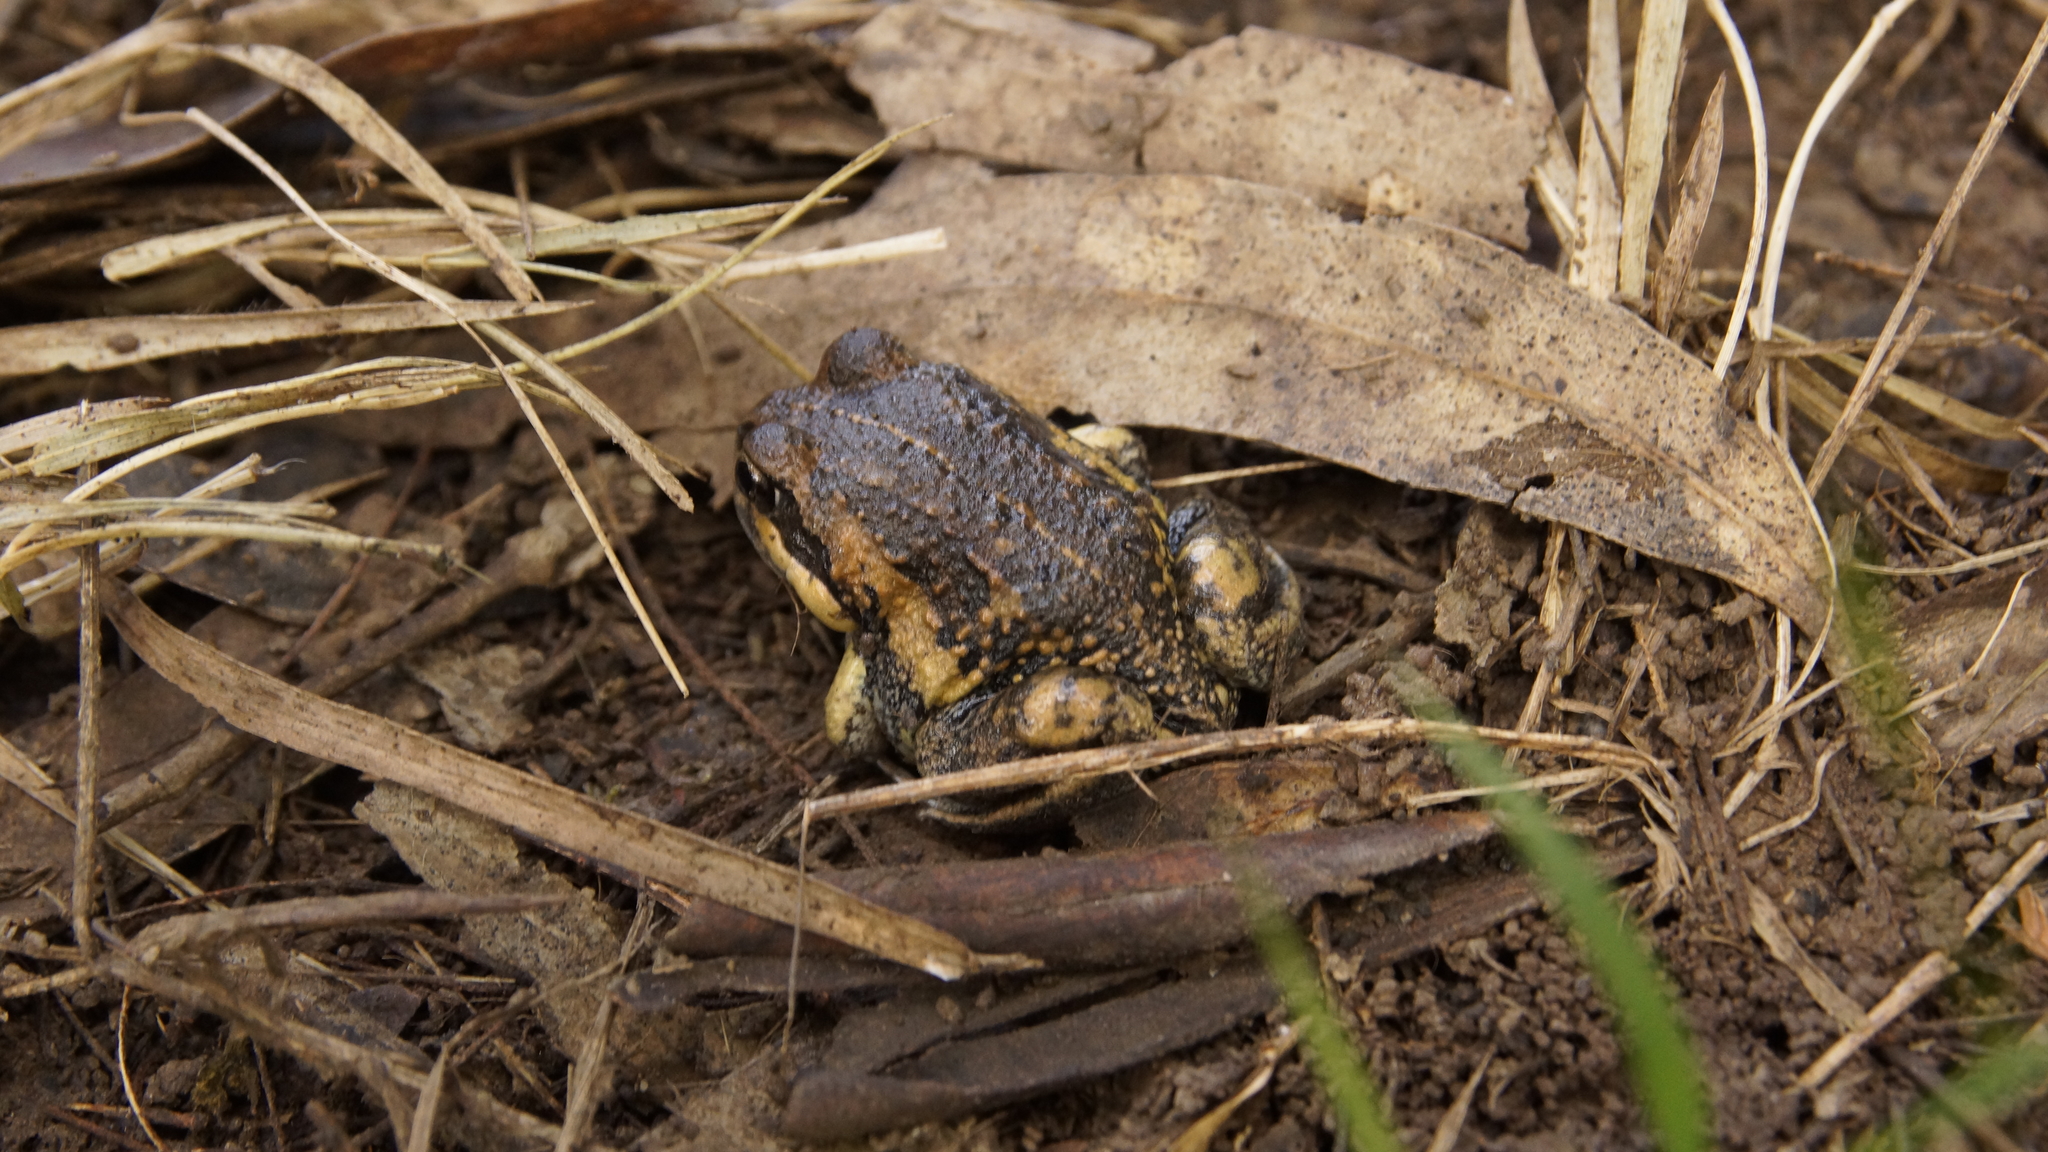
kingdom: Animalia
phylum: Chordata
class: Amphibia
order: Anura
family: Limnodynastidae
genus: Limnodynastes
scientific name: Limnodynastes dumerilii
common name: Banjo frog
